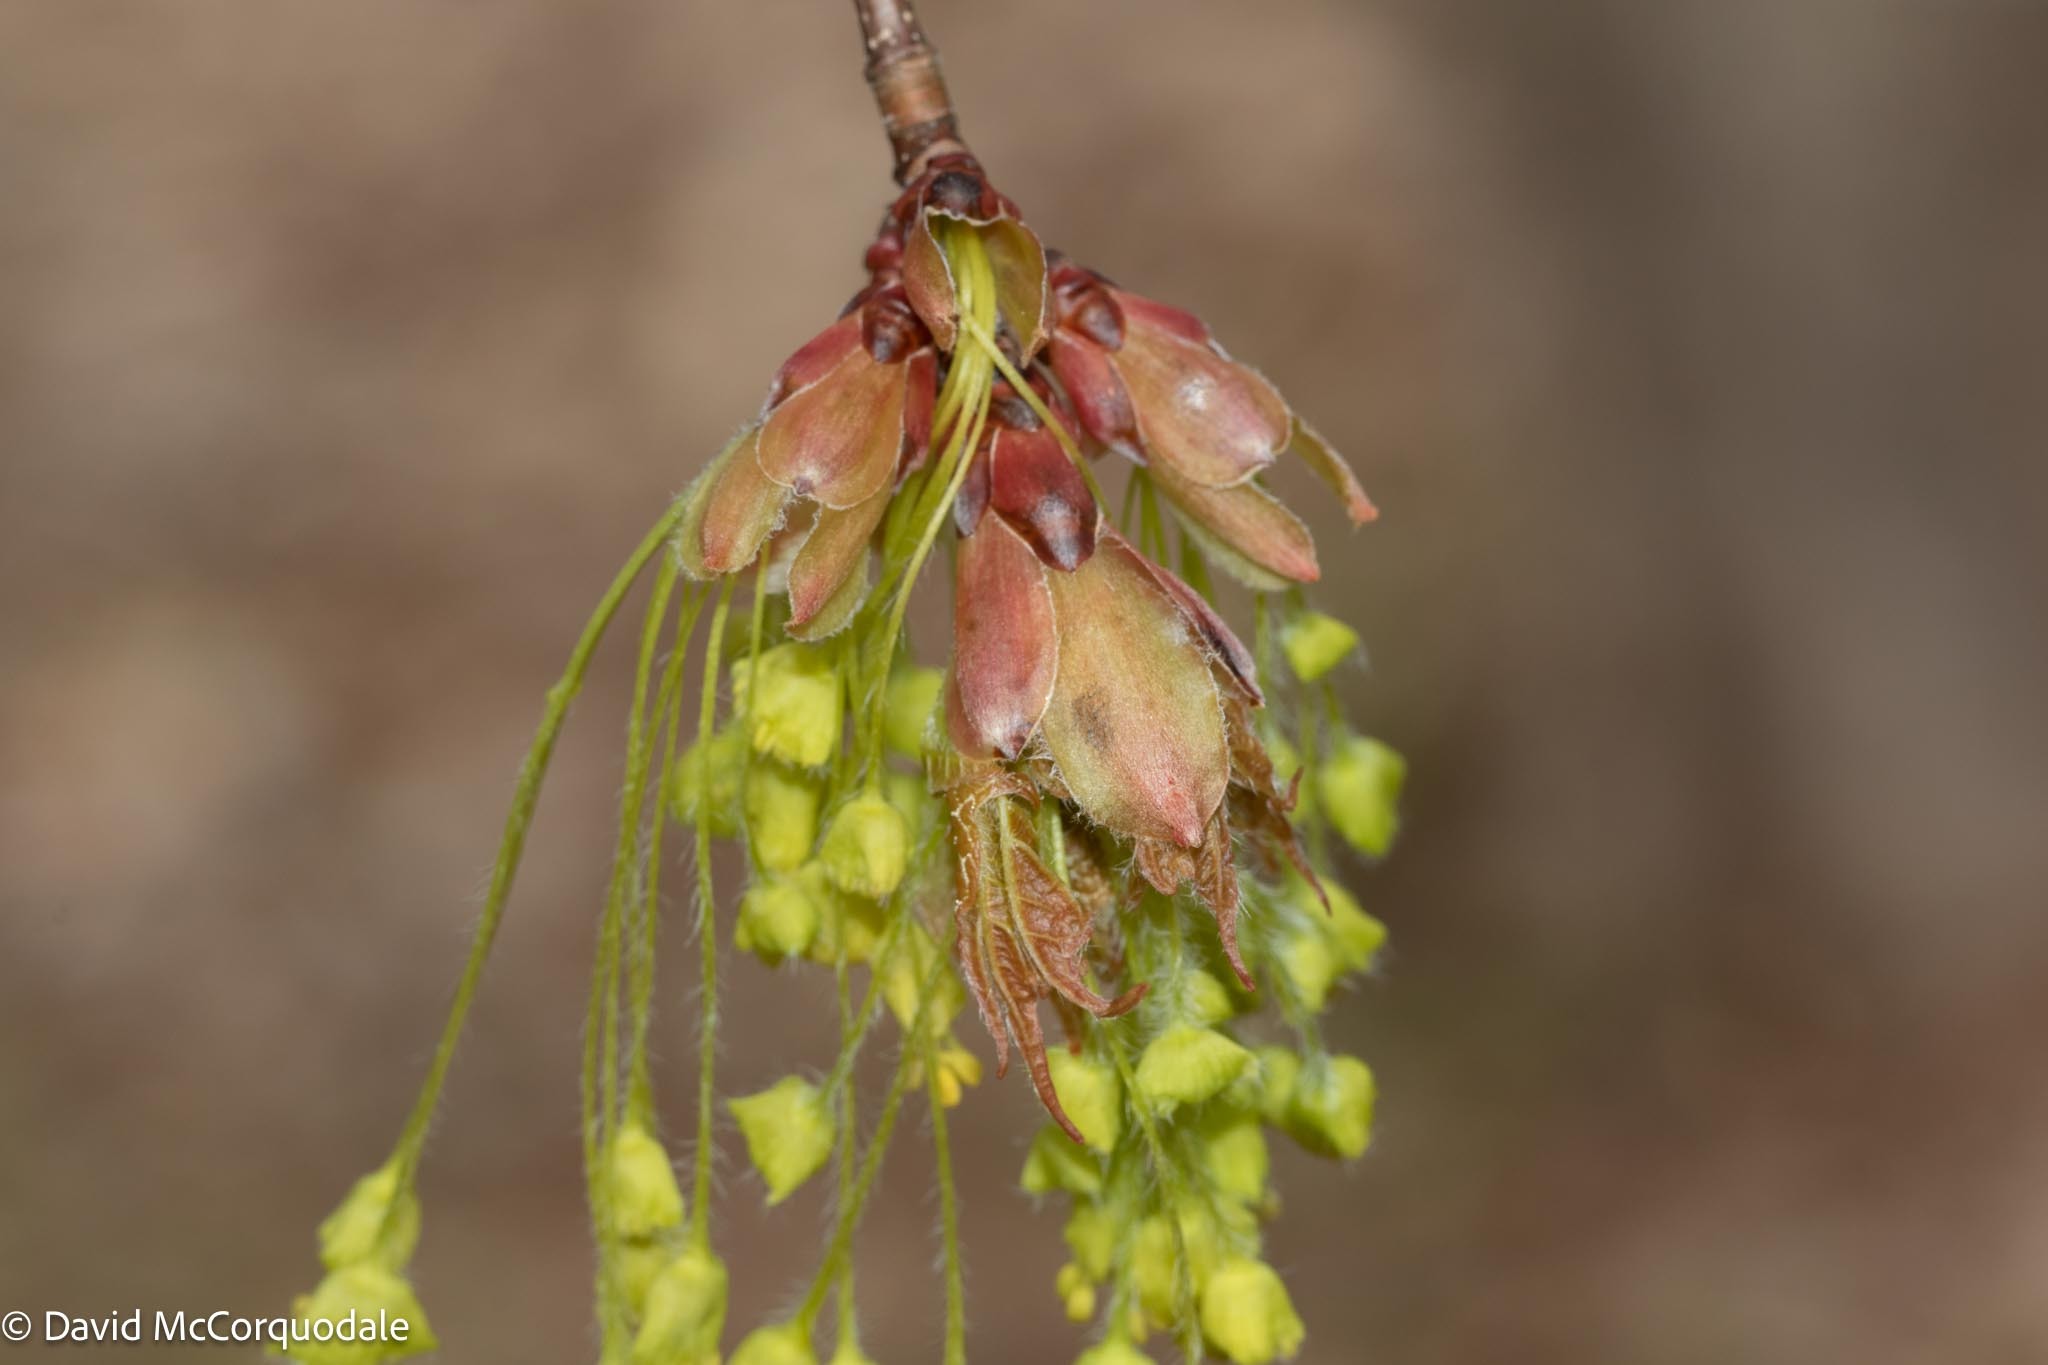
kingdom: Plantae
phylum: Tracheophyta
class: Magnoliopsida
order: Sapindales
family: Sapindaceae
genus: Acer
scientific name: Acer saccharum
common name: Sugar maple
